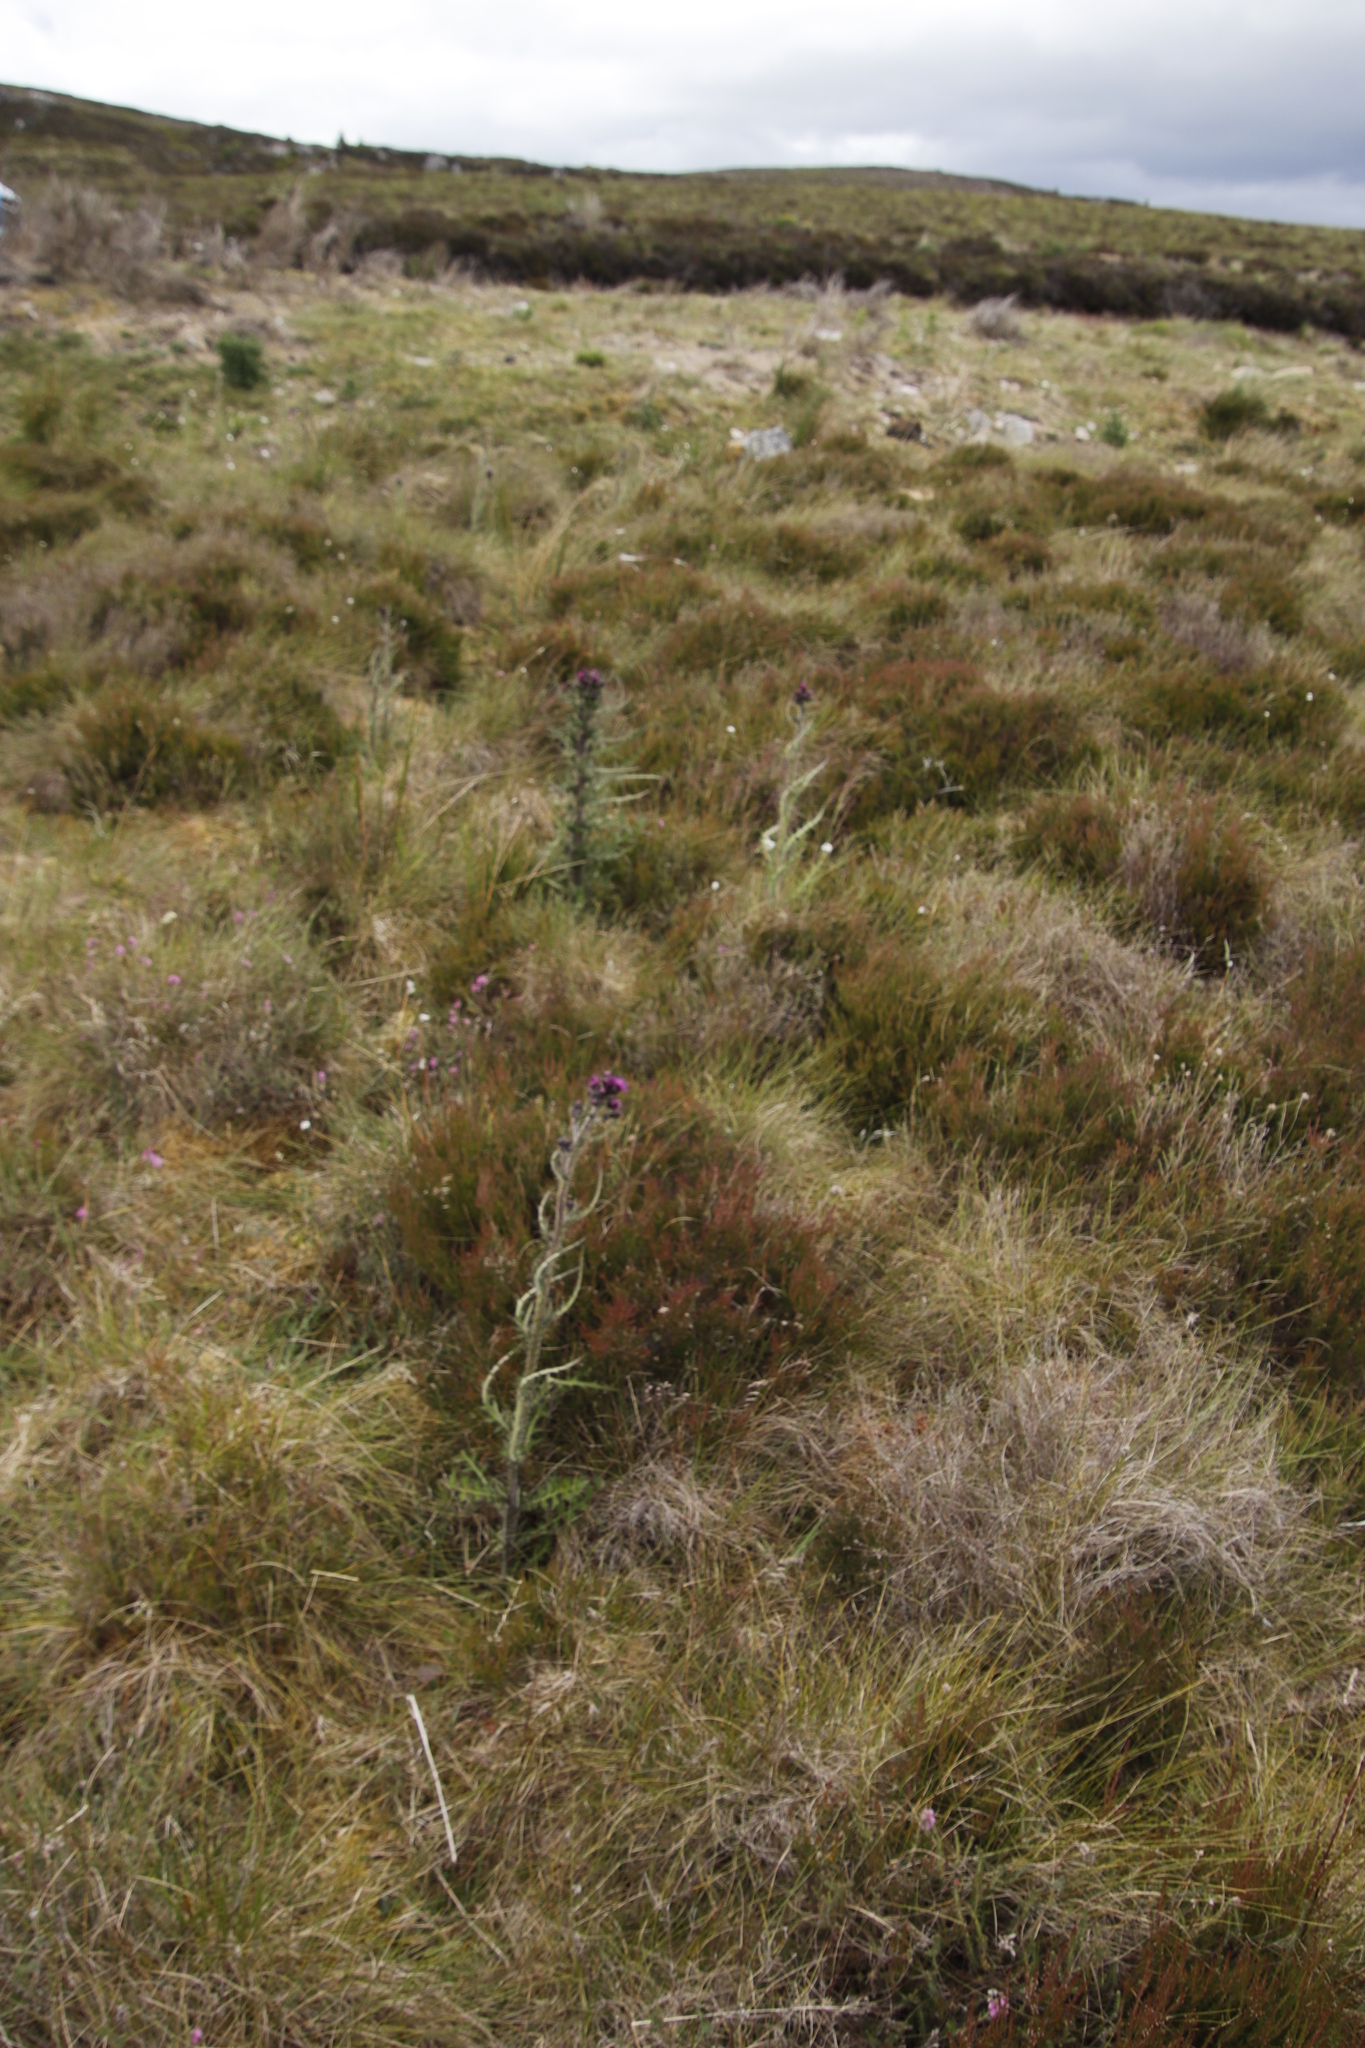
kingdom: Plantae
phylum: Tracheophyta
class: Magnoliopsida
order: Asterales
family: Asteraceae
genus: Cirsium
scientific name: Cirsium palustre
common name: Marsh thistle
